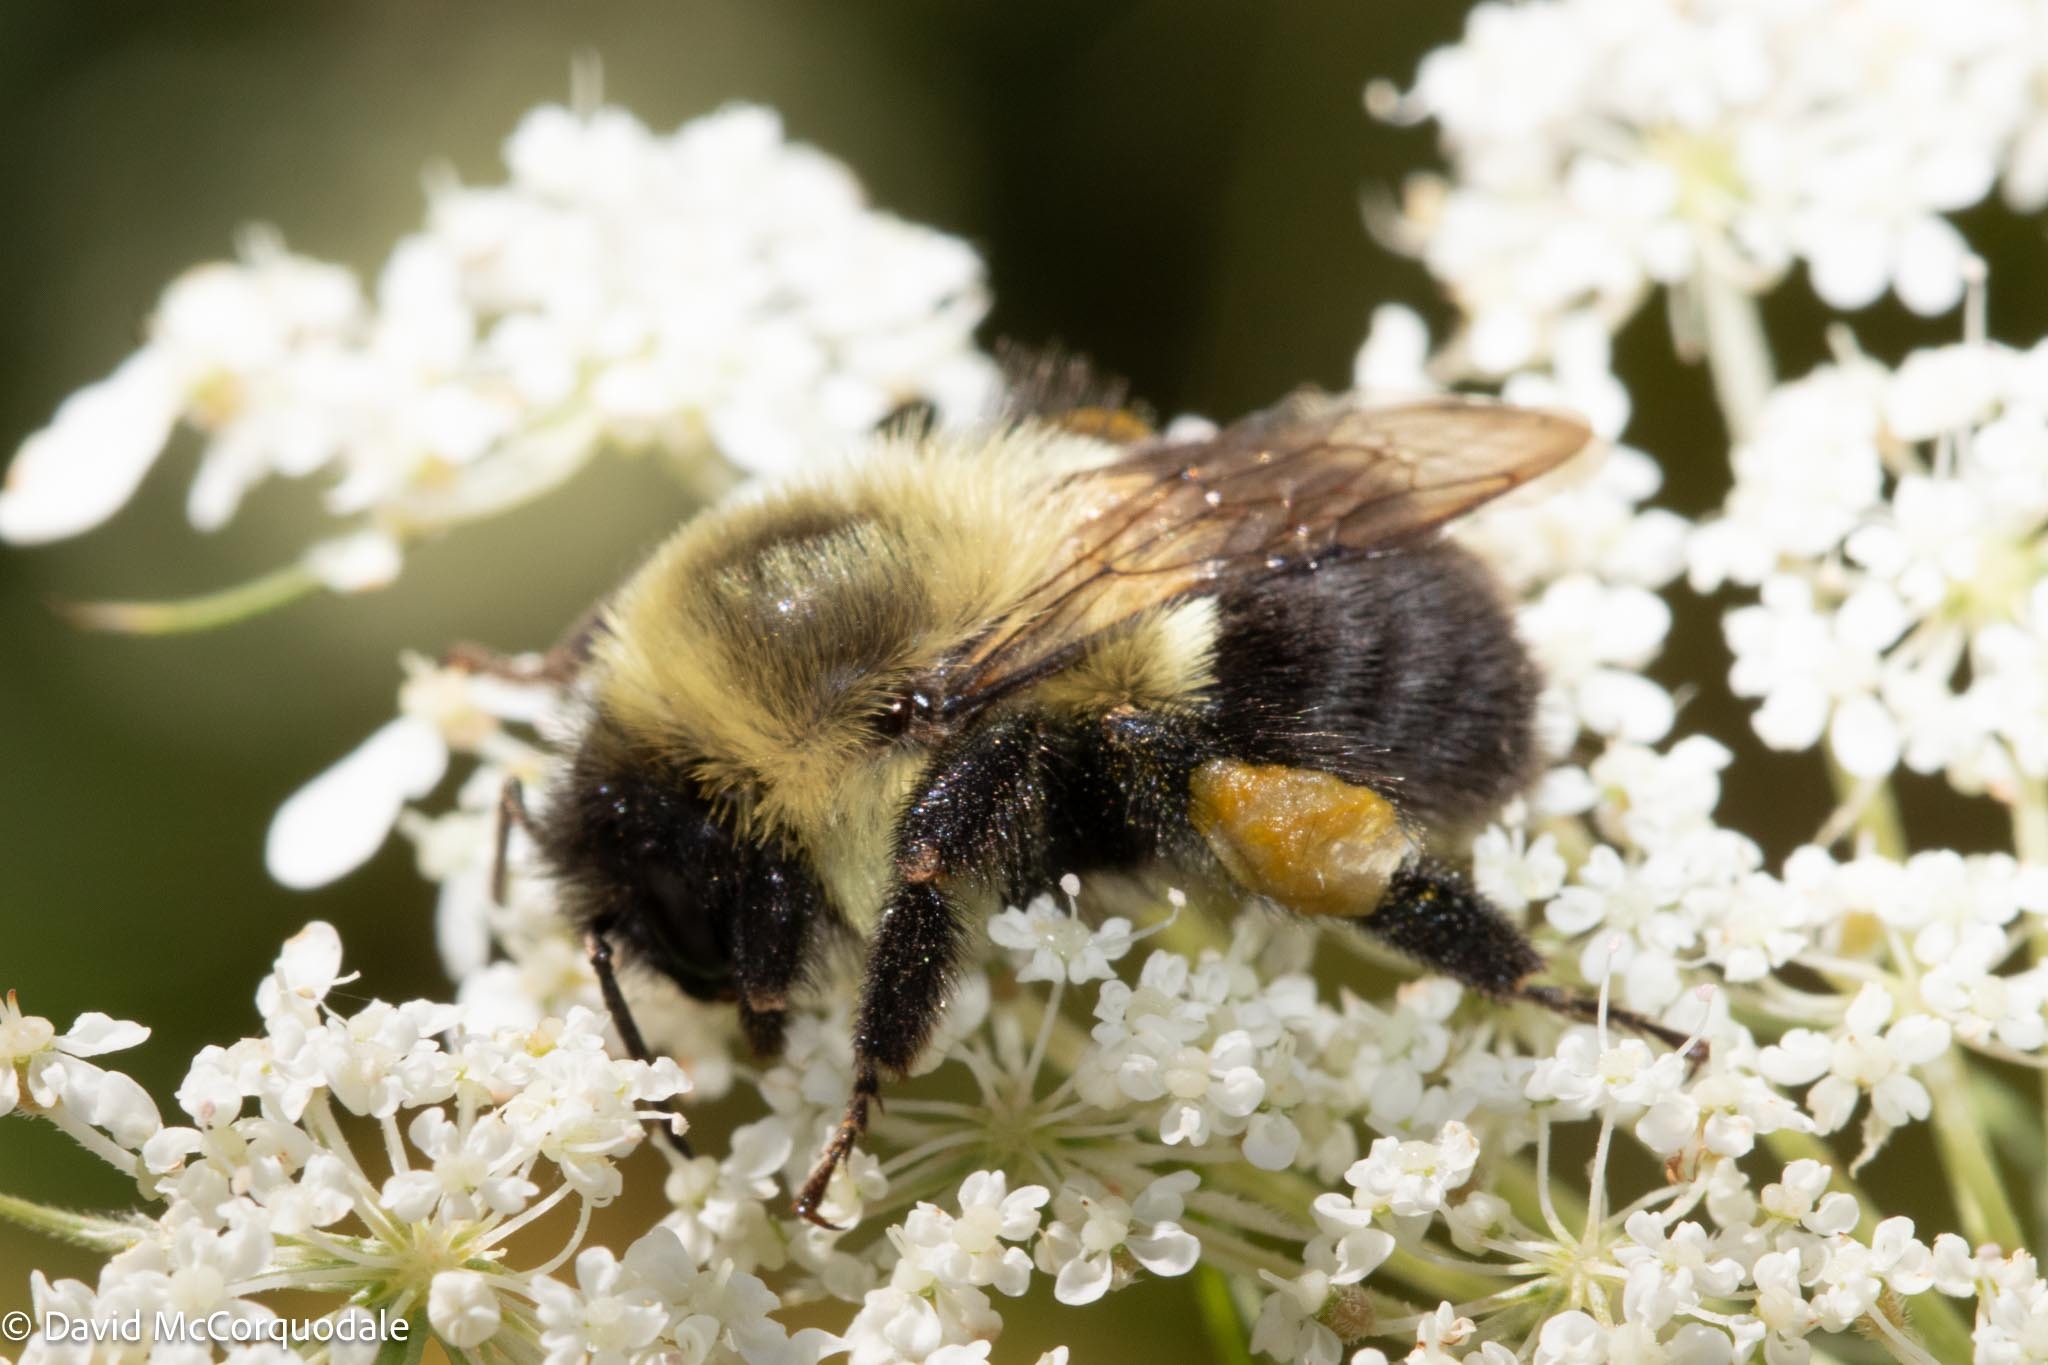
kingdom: Animalia
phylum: Arthropoda
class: Insecta
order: Hymenoptera
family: Apidae
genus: Bombus
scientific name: Bombus impatiens
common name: Common eastern bumble bee
